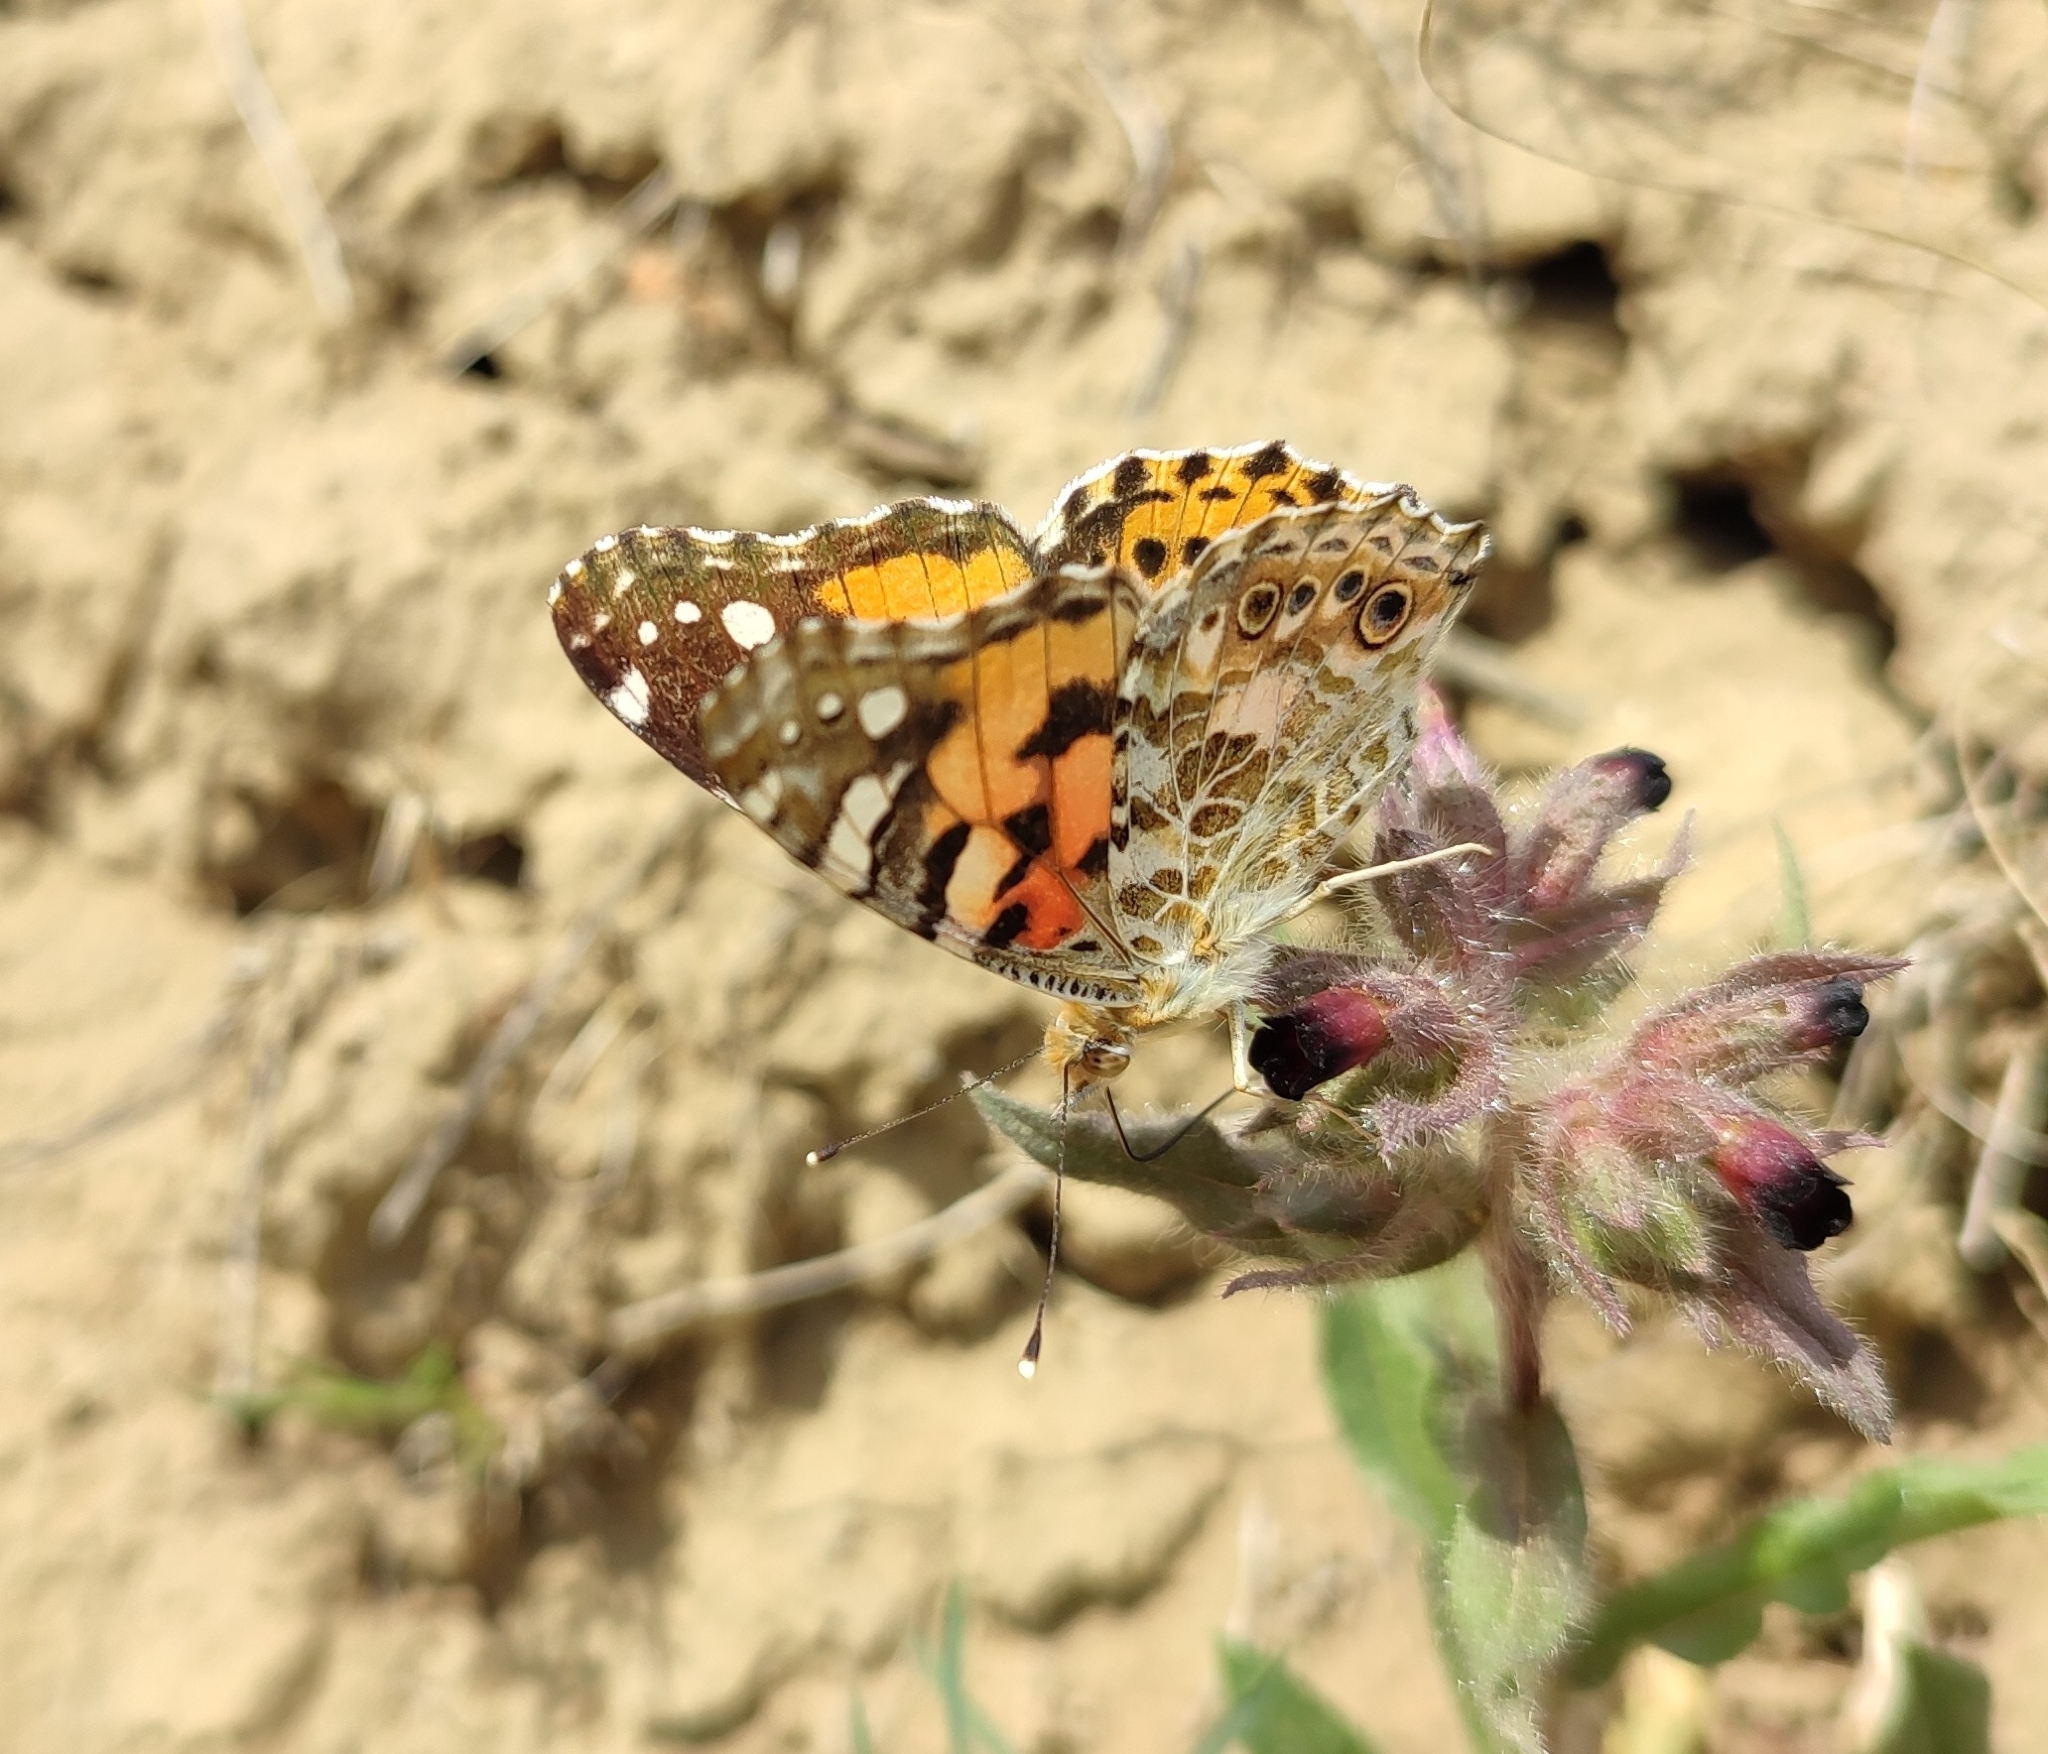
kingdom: Animalia
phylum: Arthropoda
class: Insecta
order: Lepidoptera
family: Nymphalidae
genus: Vanessa
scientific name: Vanessa cardui
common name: Painted lady
